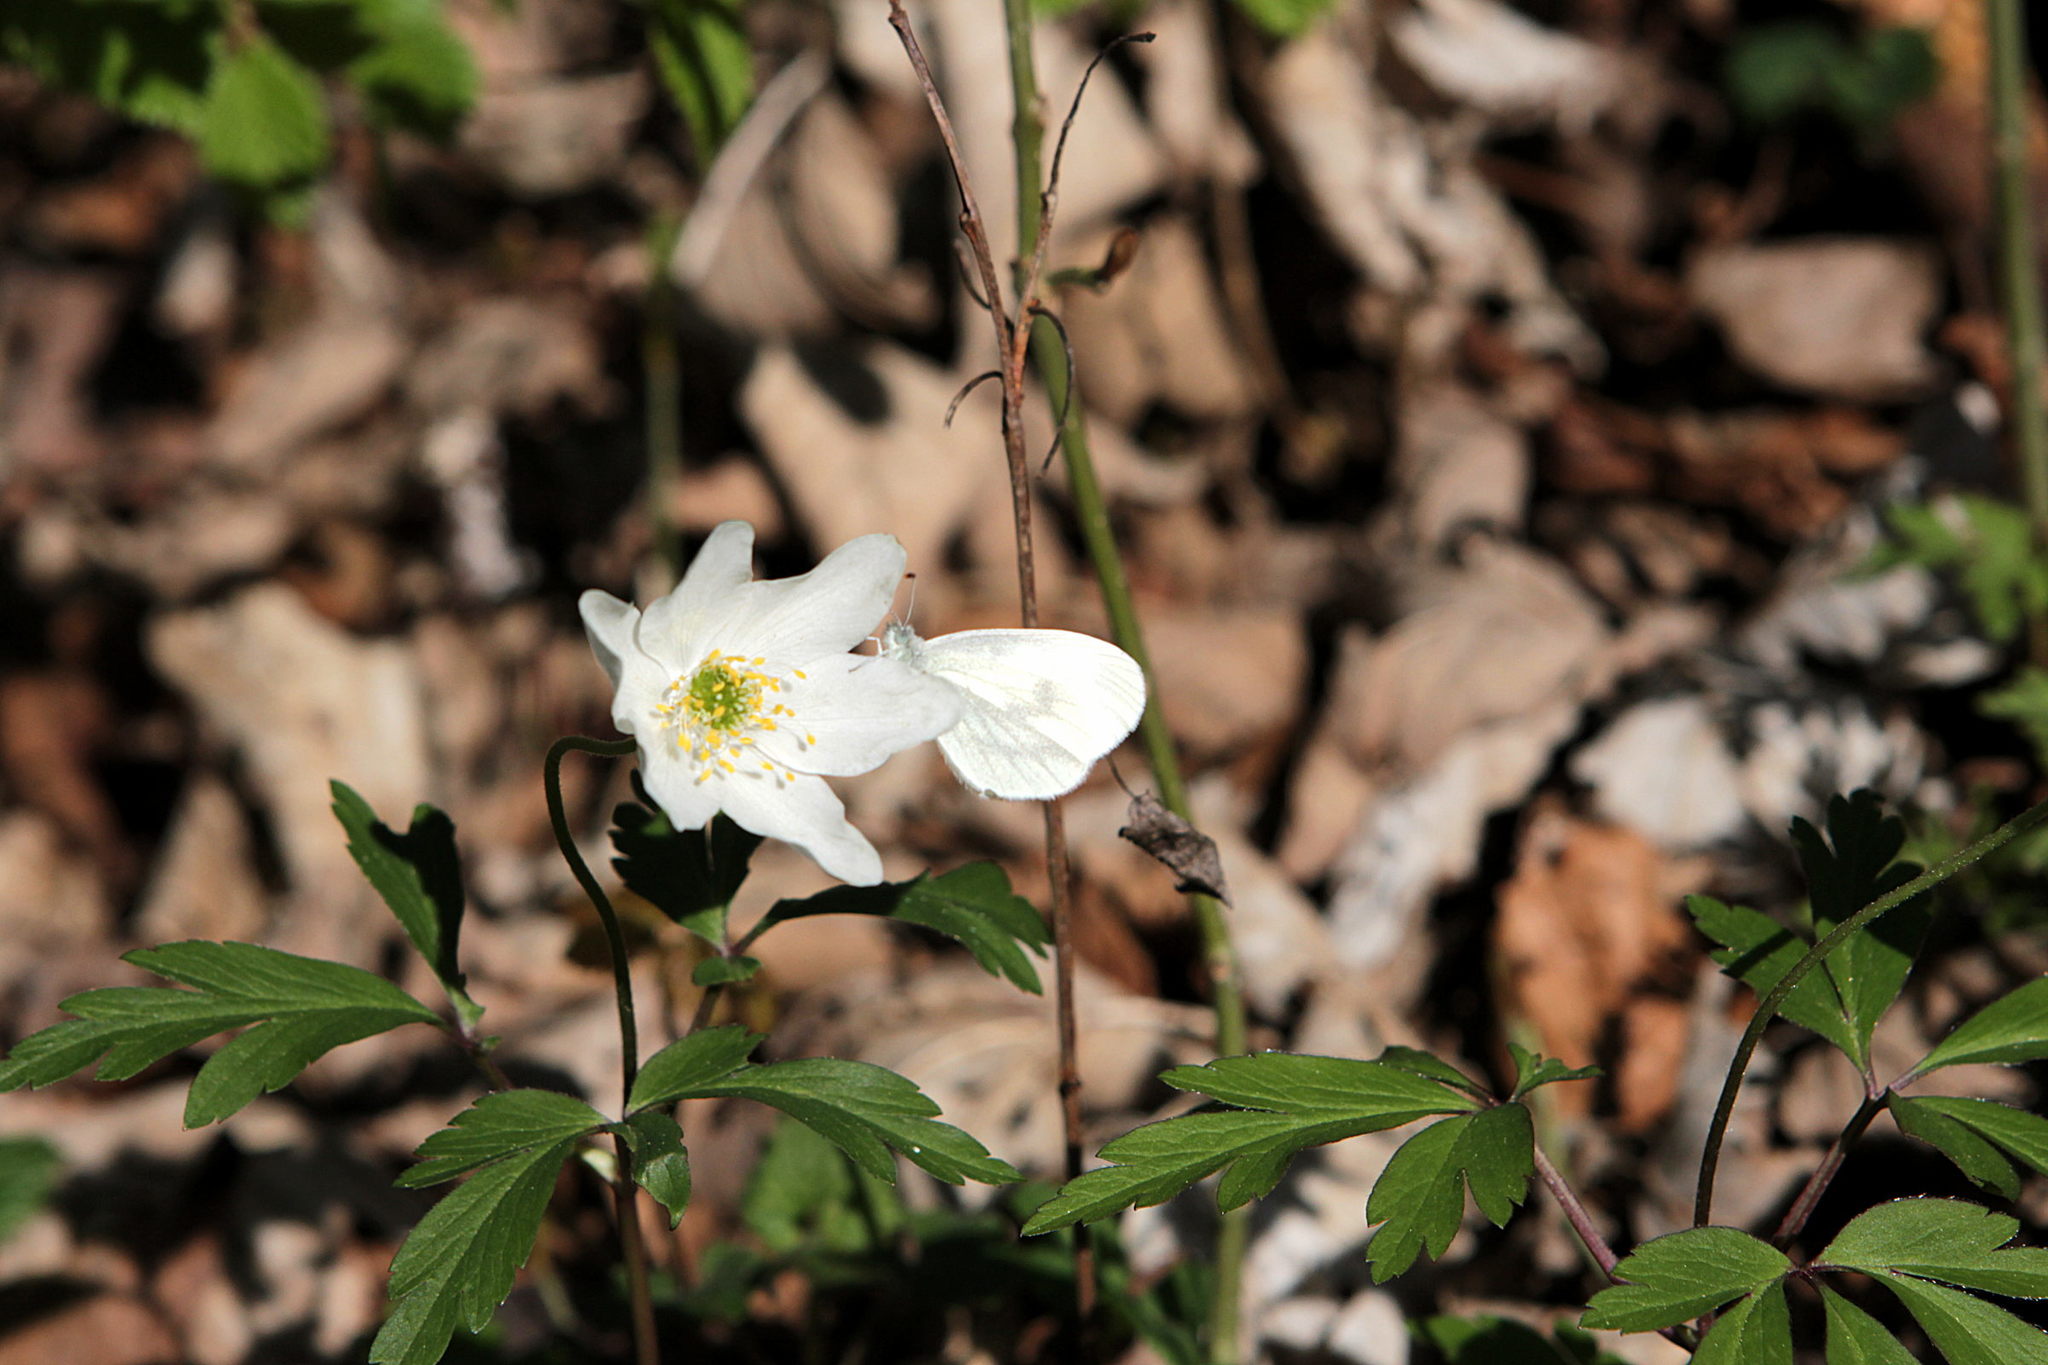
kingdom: Plantae
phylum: Tracheophyta
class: Magnoliopsida
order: Ranunculales
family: Ranunculaceae
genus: Anemone
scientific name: Anemone nemorosa
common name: Wood anemone
